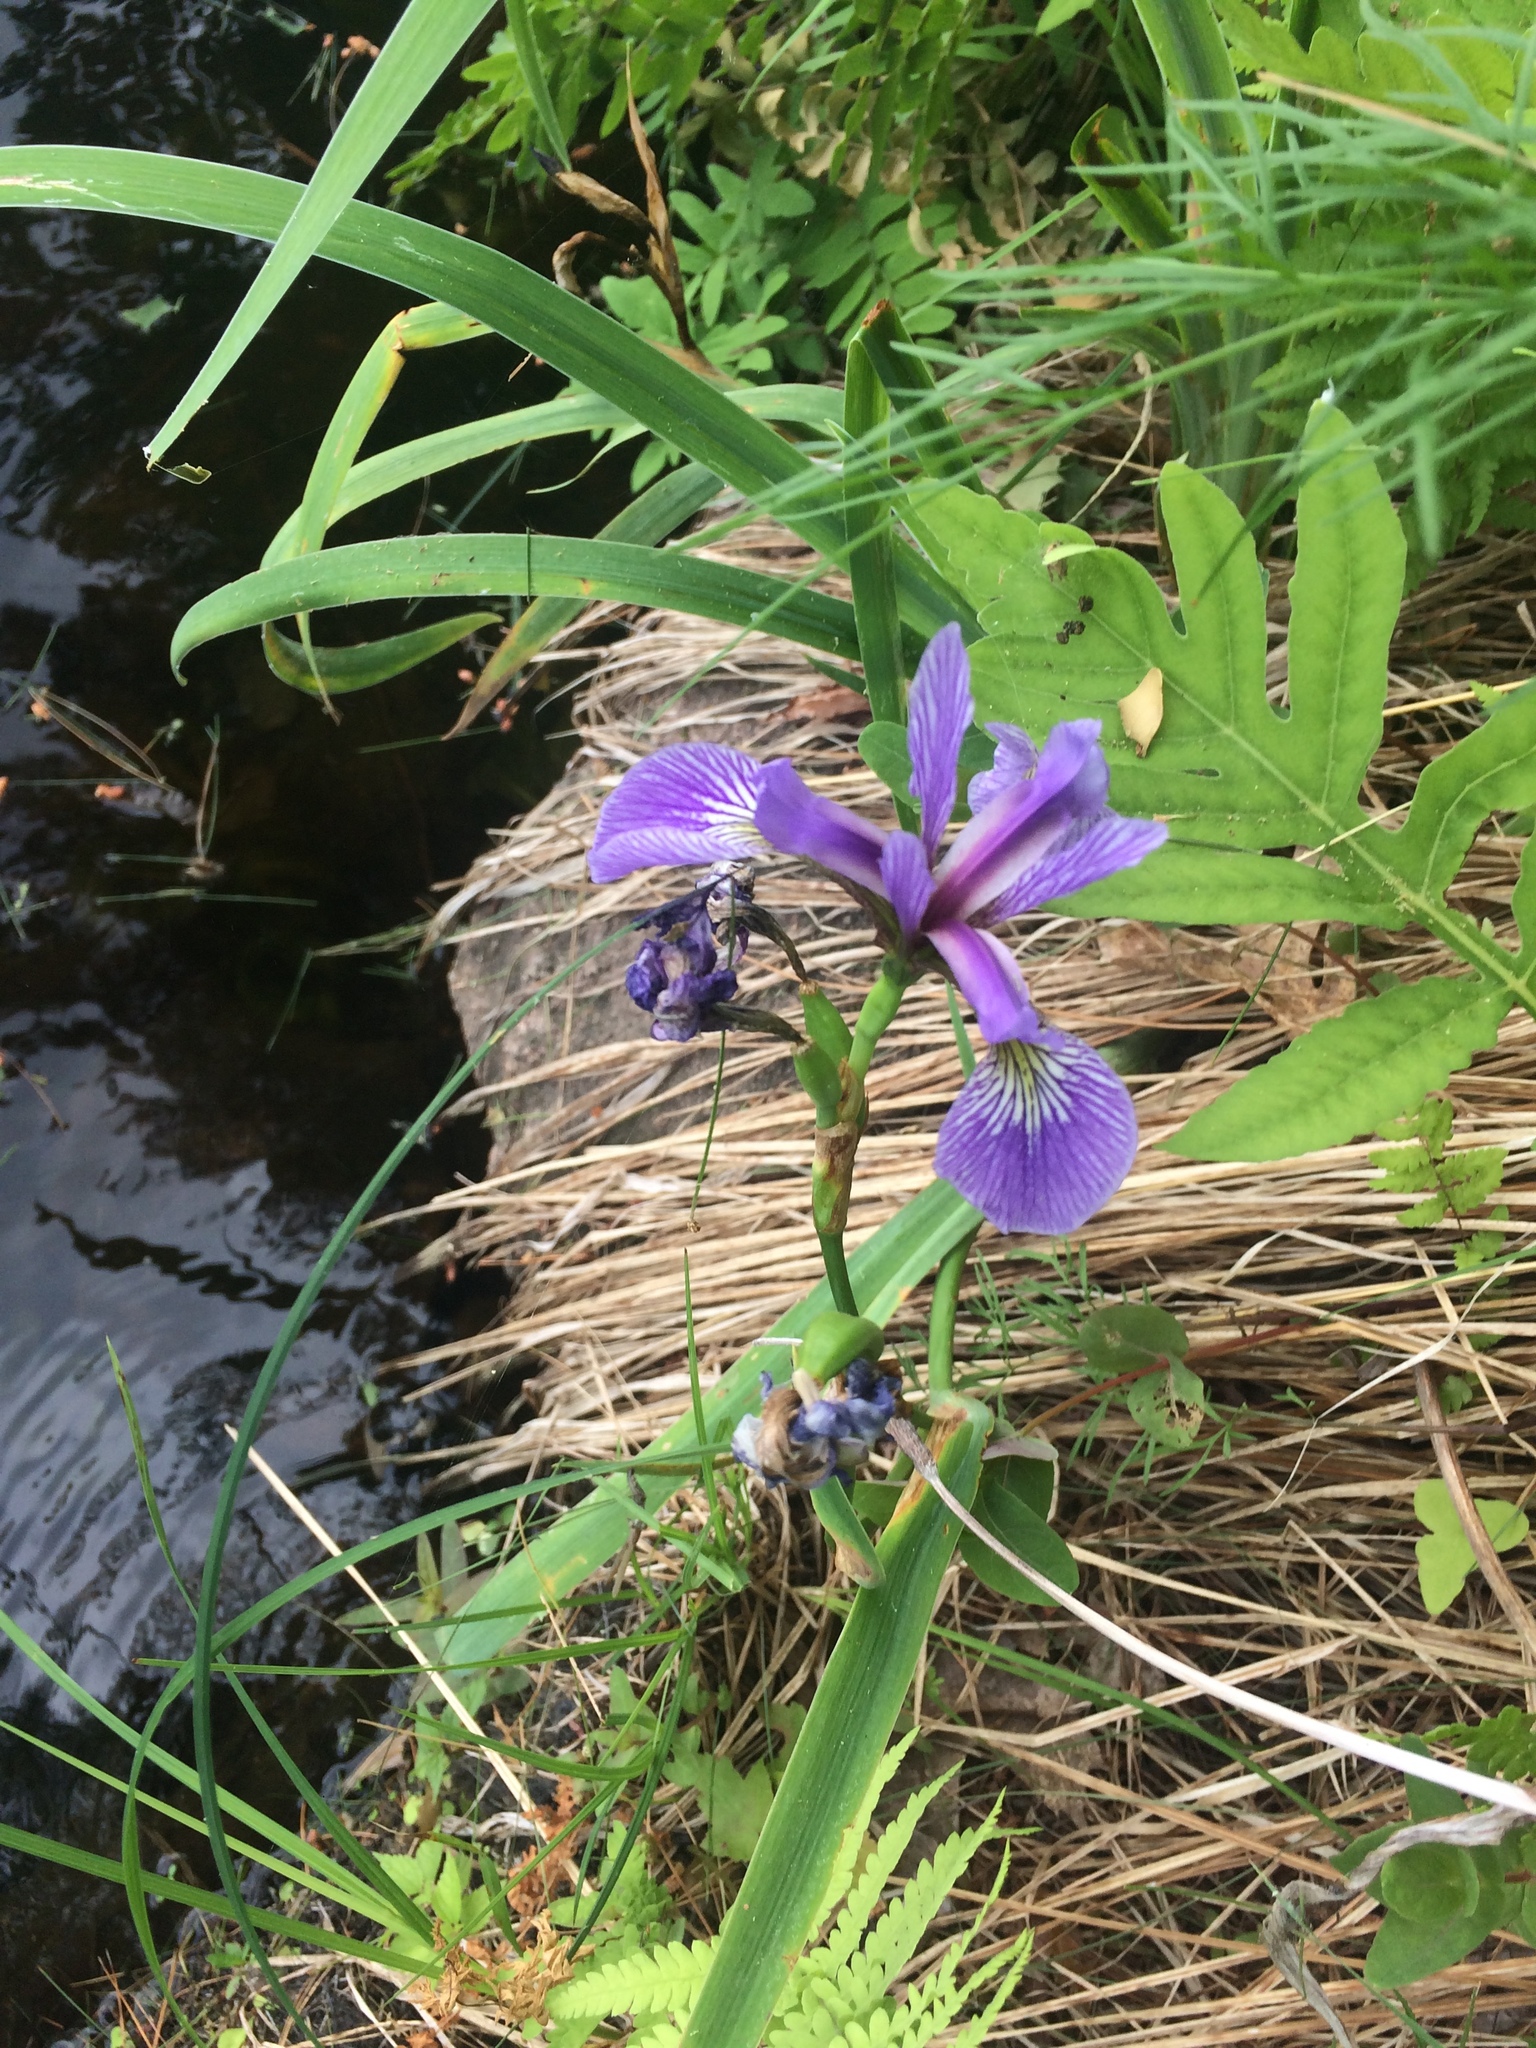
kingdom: Plantae
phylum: Tracheophyta
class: Liliopsida
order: Asparagales
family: Iridaceae
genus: Iris
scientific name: Iris versicolor
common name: Purple iris
